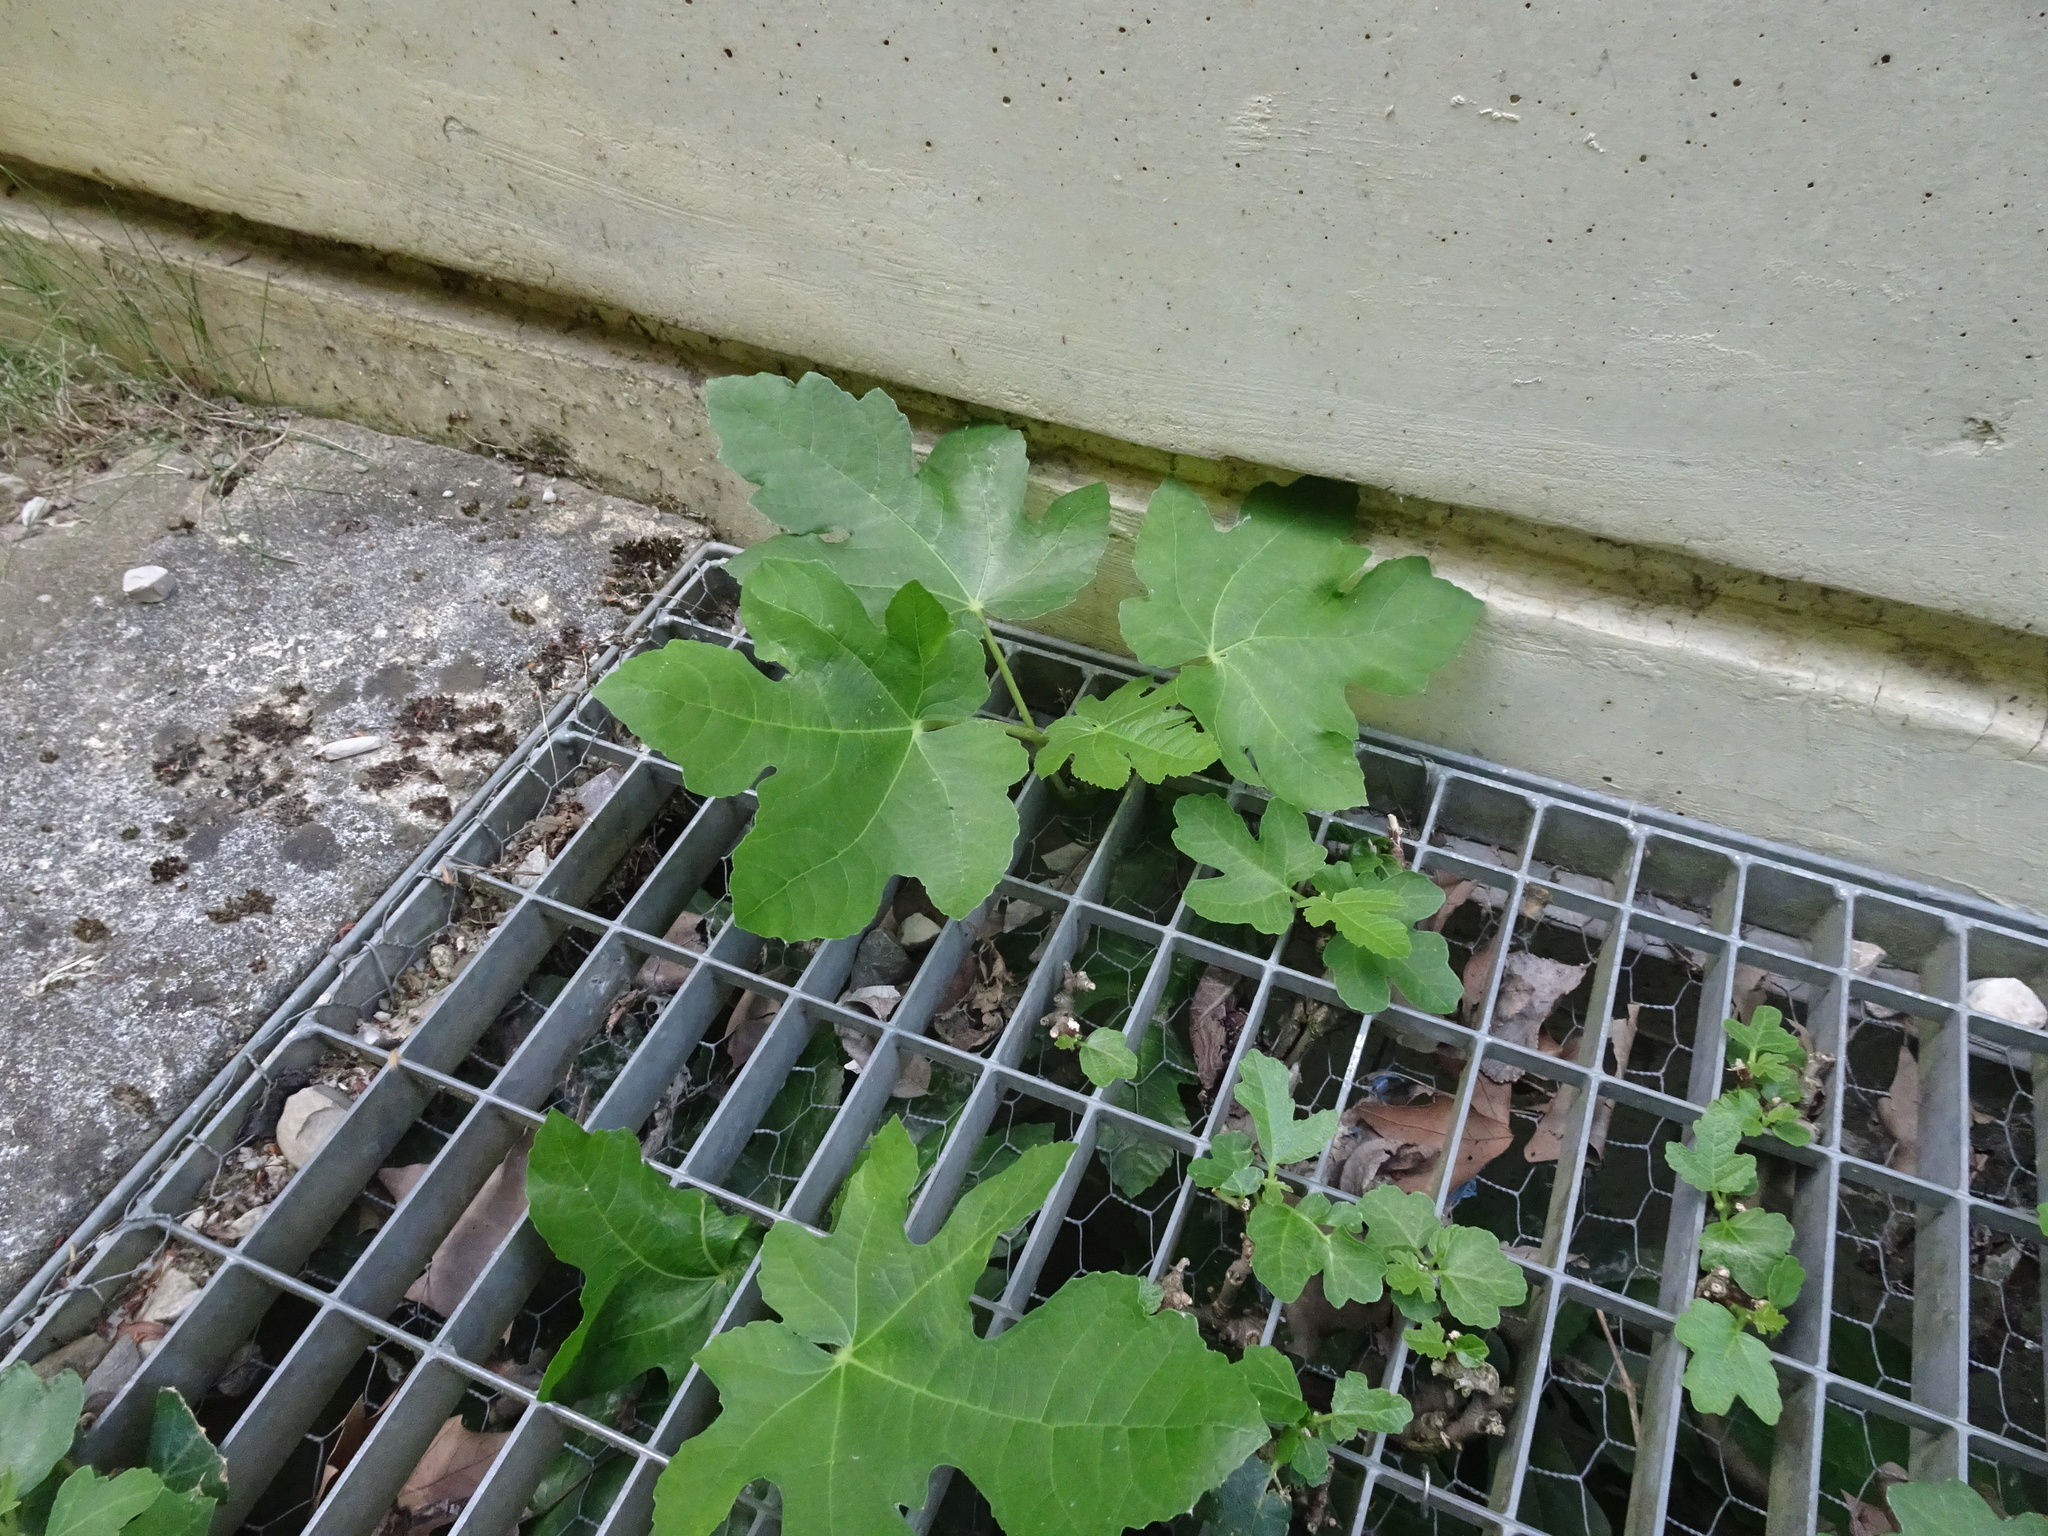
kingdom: Plantae
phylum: Tracheophyta
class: Magnoliopsida
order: Rosales
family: Moraceae
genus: Ficus
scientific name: Ficus carica
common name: Fig
